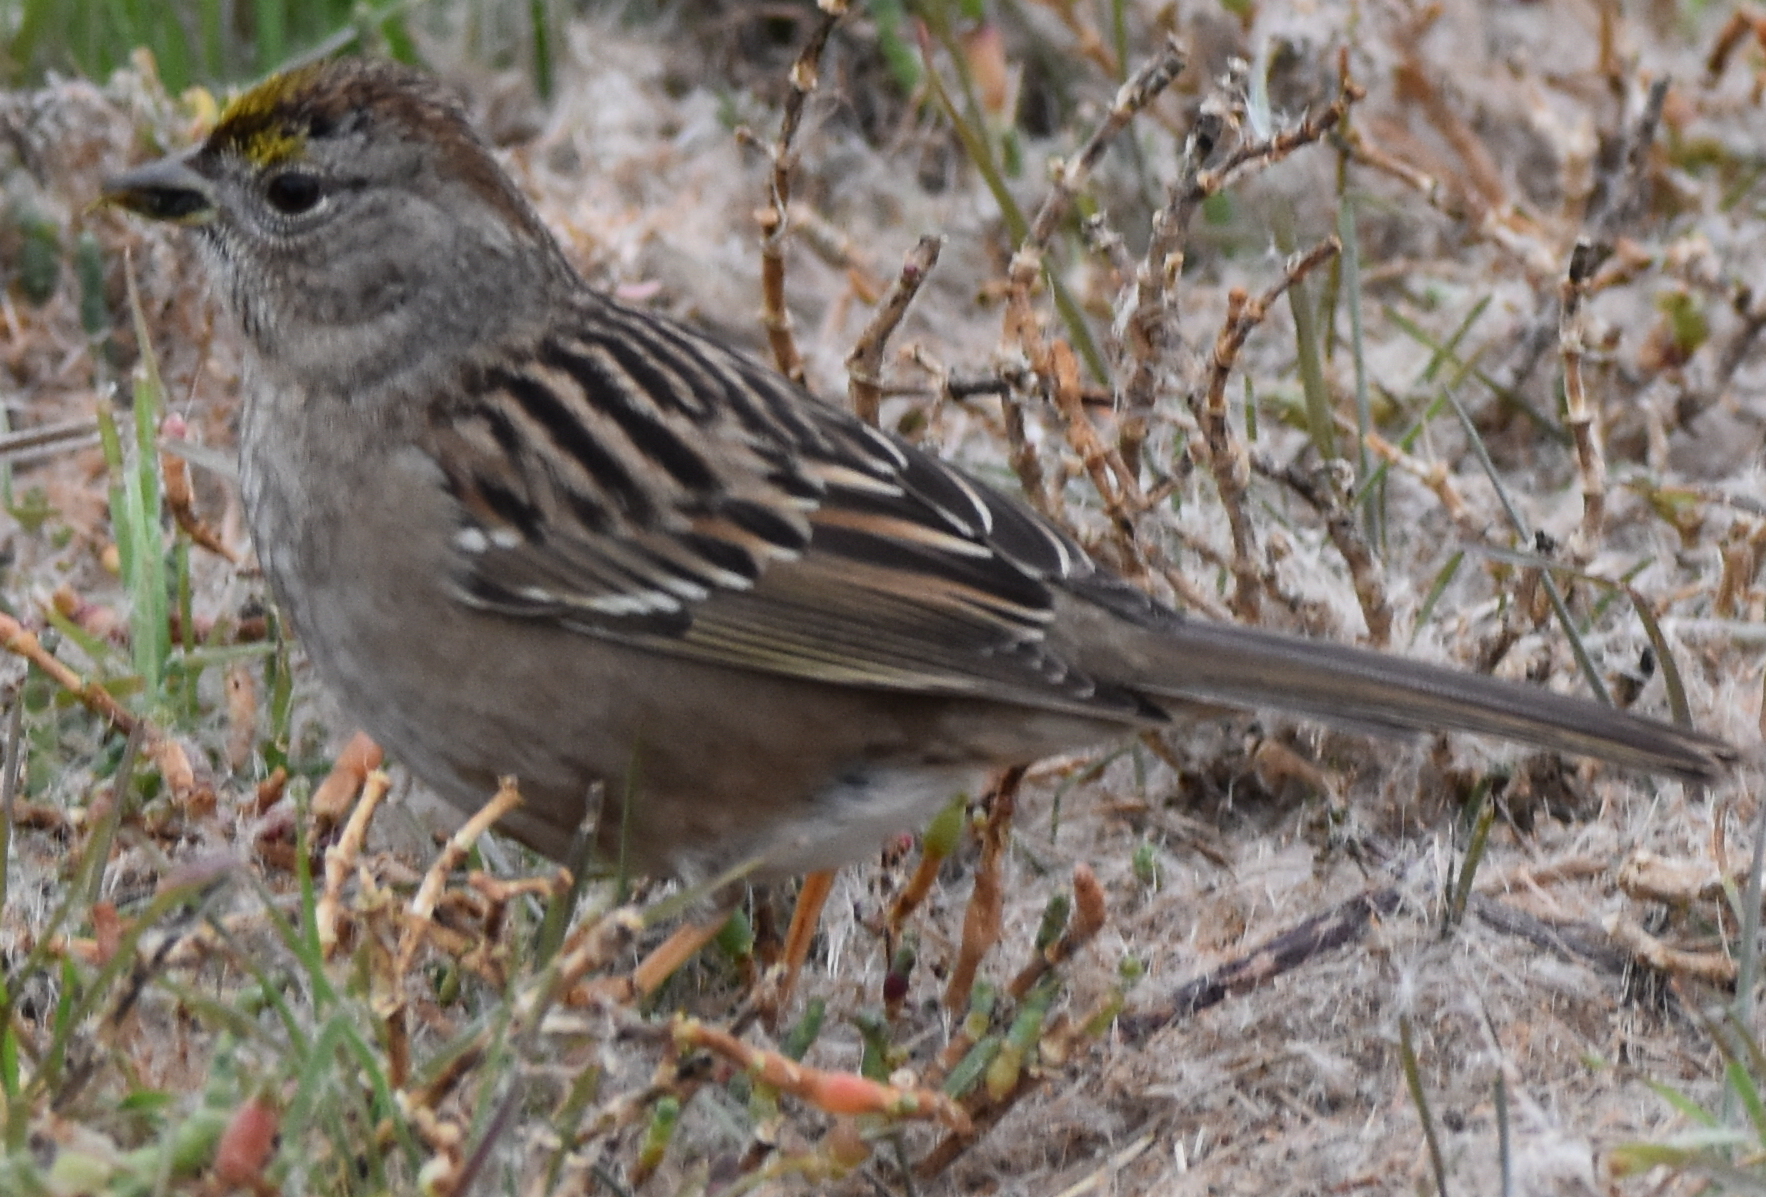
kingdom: Animalia
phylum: Chordata
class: Aves
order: Passeriformes
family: Passerellidae
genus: Zonotrichia
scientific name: Zonotrichia atricapilla
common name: Golden-crowned sparrow
